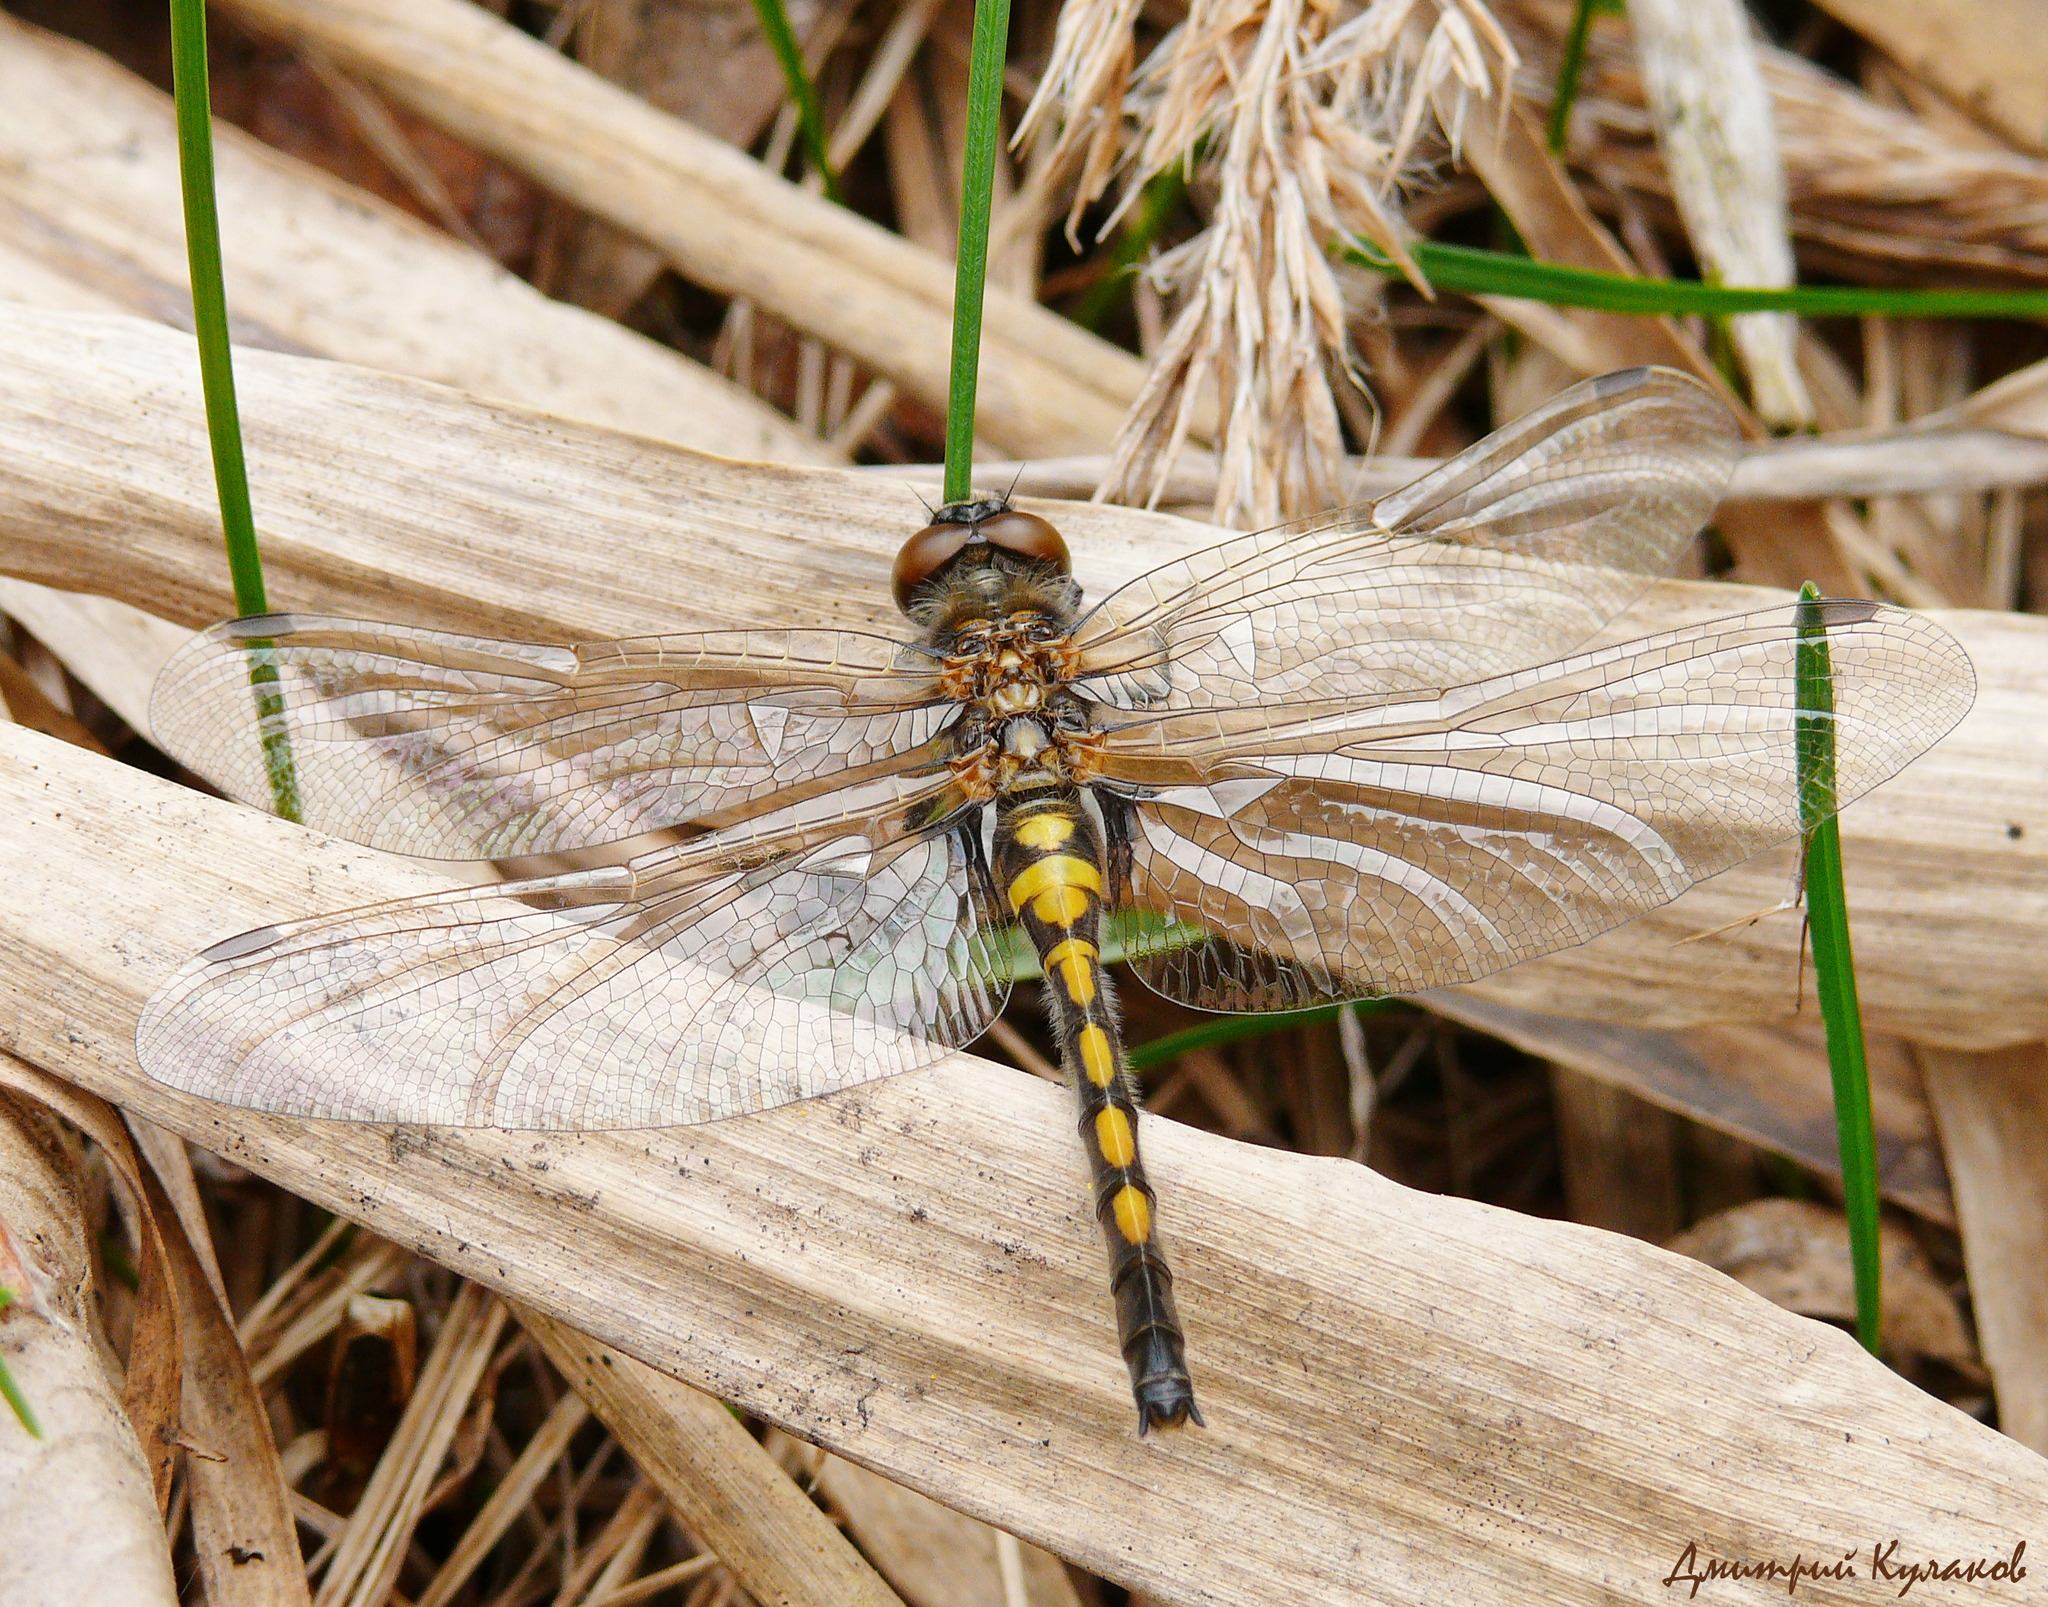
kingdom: Animalia
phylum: Arthropoda
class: Insecta
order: Odonata
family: Libellulidae
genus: Leucorrhinia
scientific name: Leucorrhinia rubicunda
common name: Ruby whiteface
